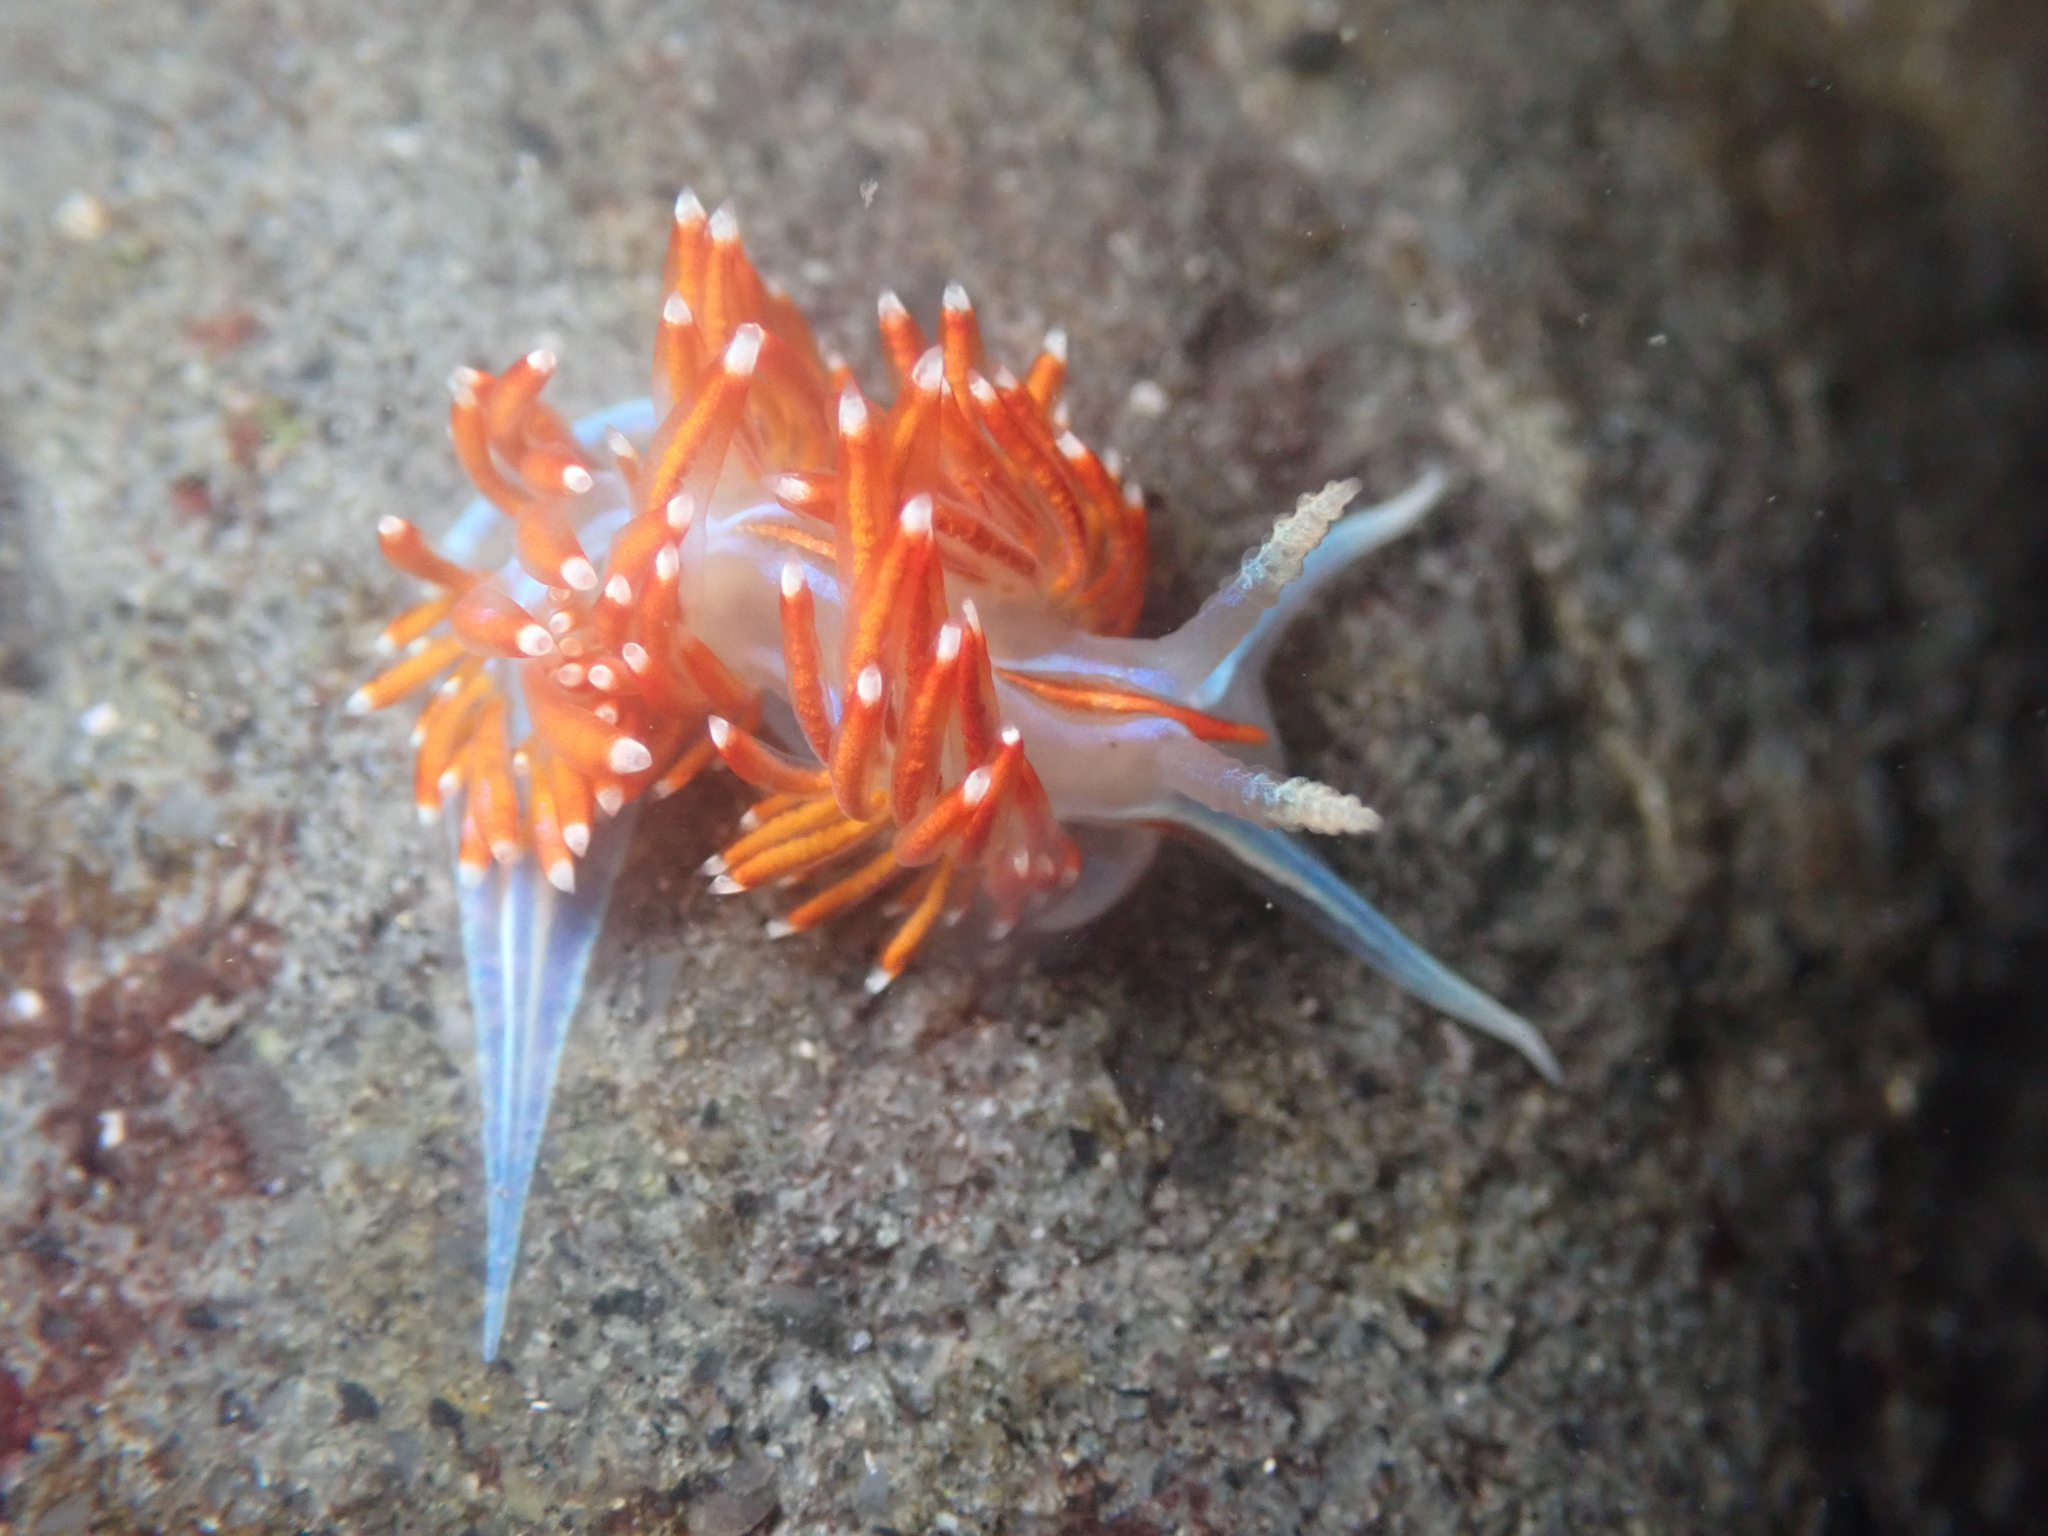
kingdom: Animalia
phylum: Mollusca
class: Gastropoda
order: Nudibranchia
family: Myrrhinidae
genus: Hermissenda
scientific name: Hermissenda opalescens
